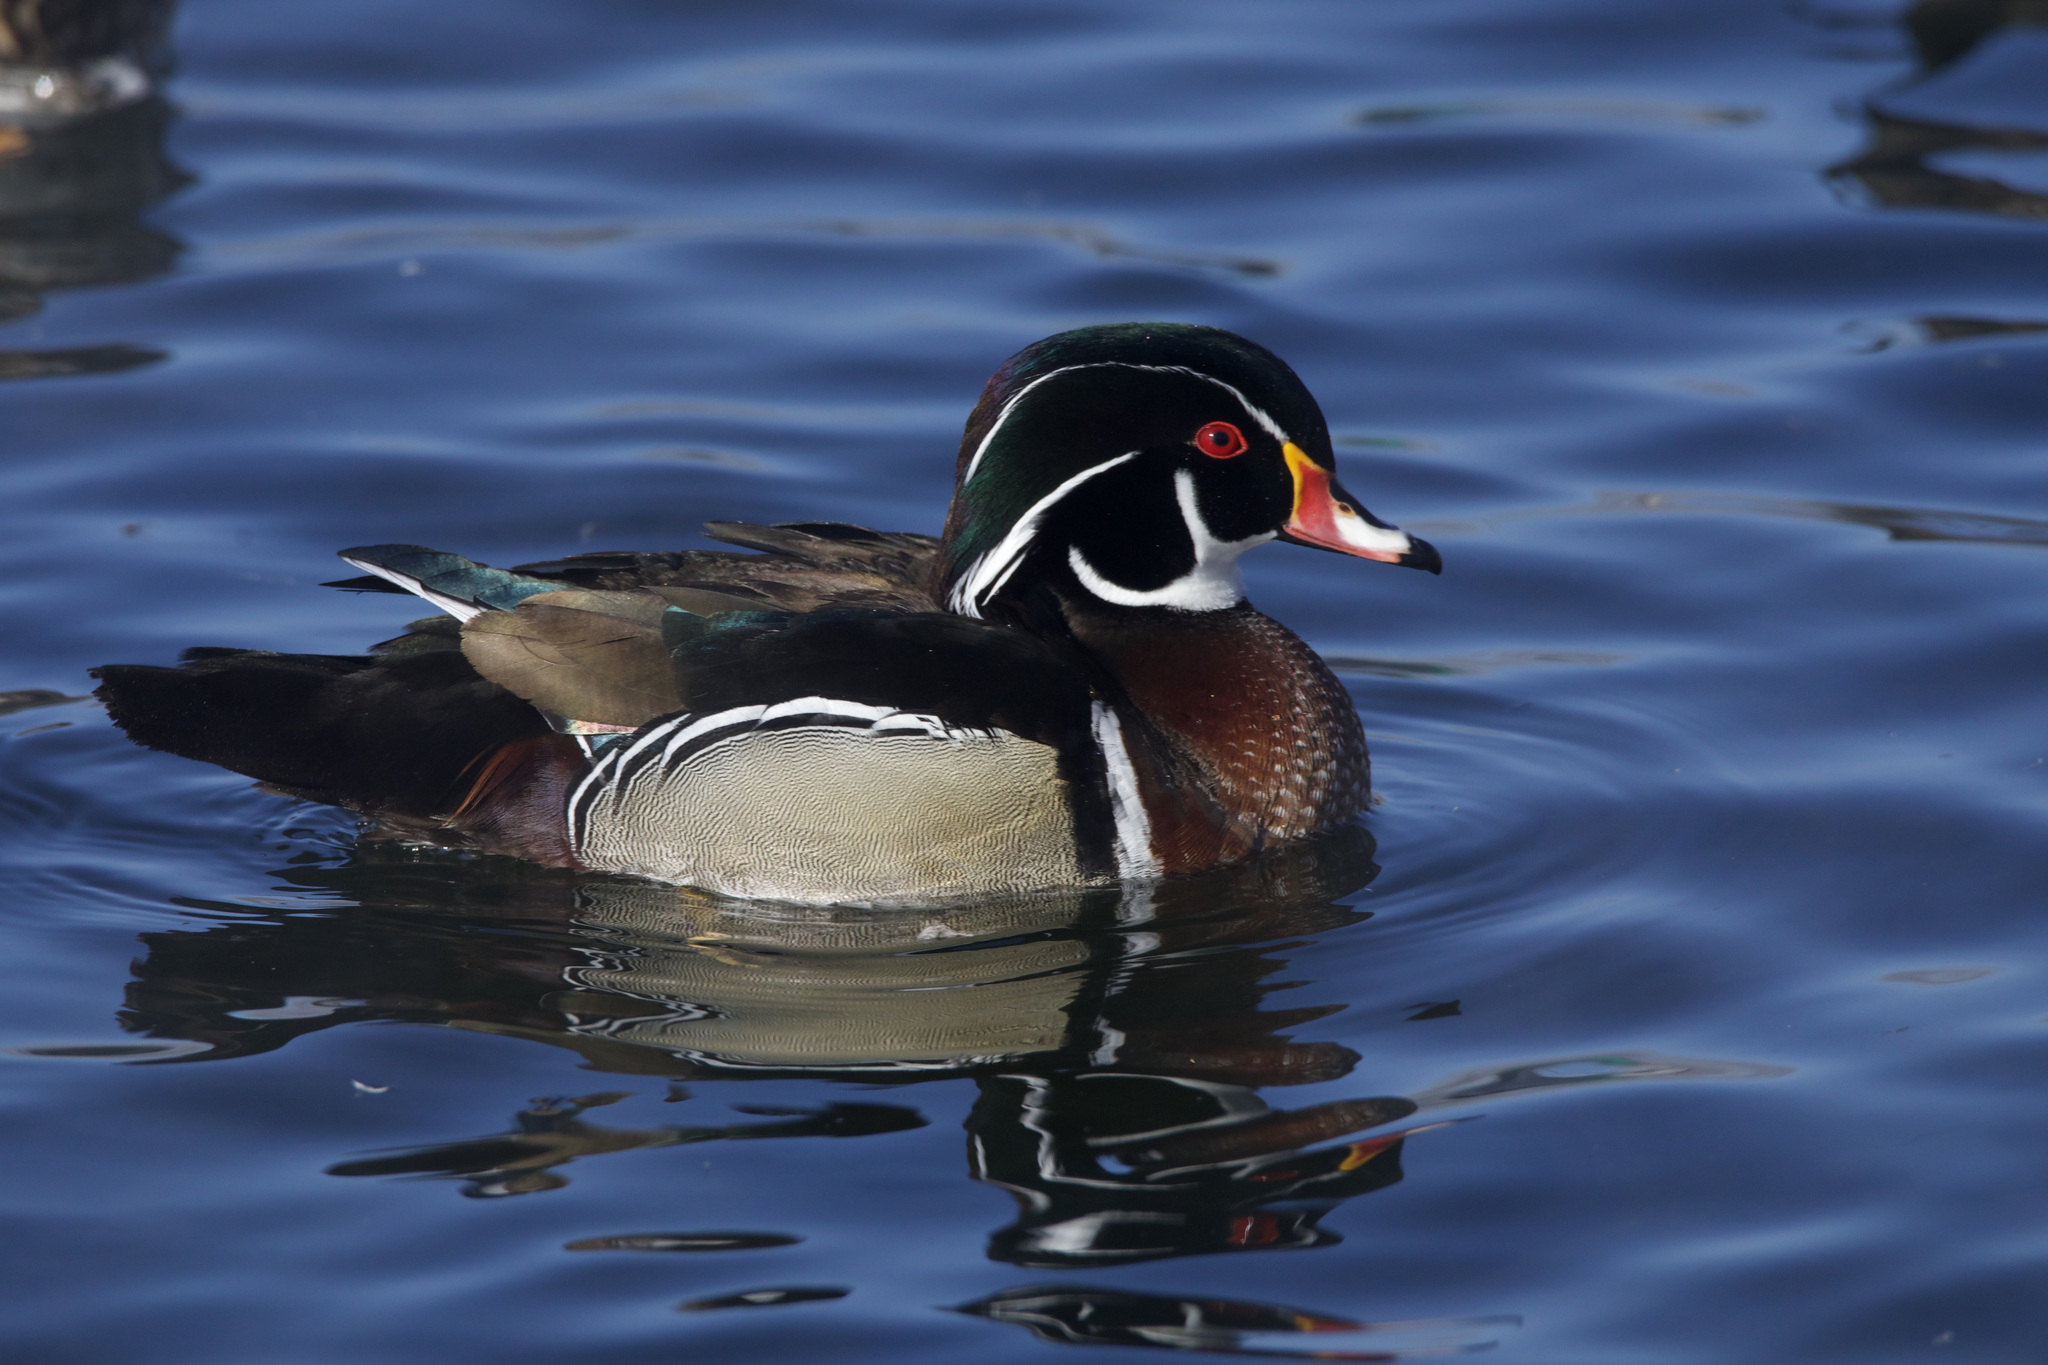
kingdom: Animalia
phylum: Chordata
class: Aves
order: Anseriformes
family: Anatidae
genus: Aix
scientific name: Aix sponsa
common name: Wood duck
